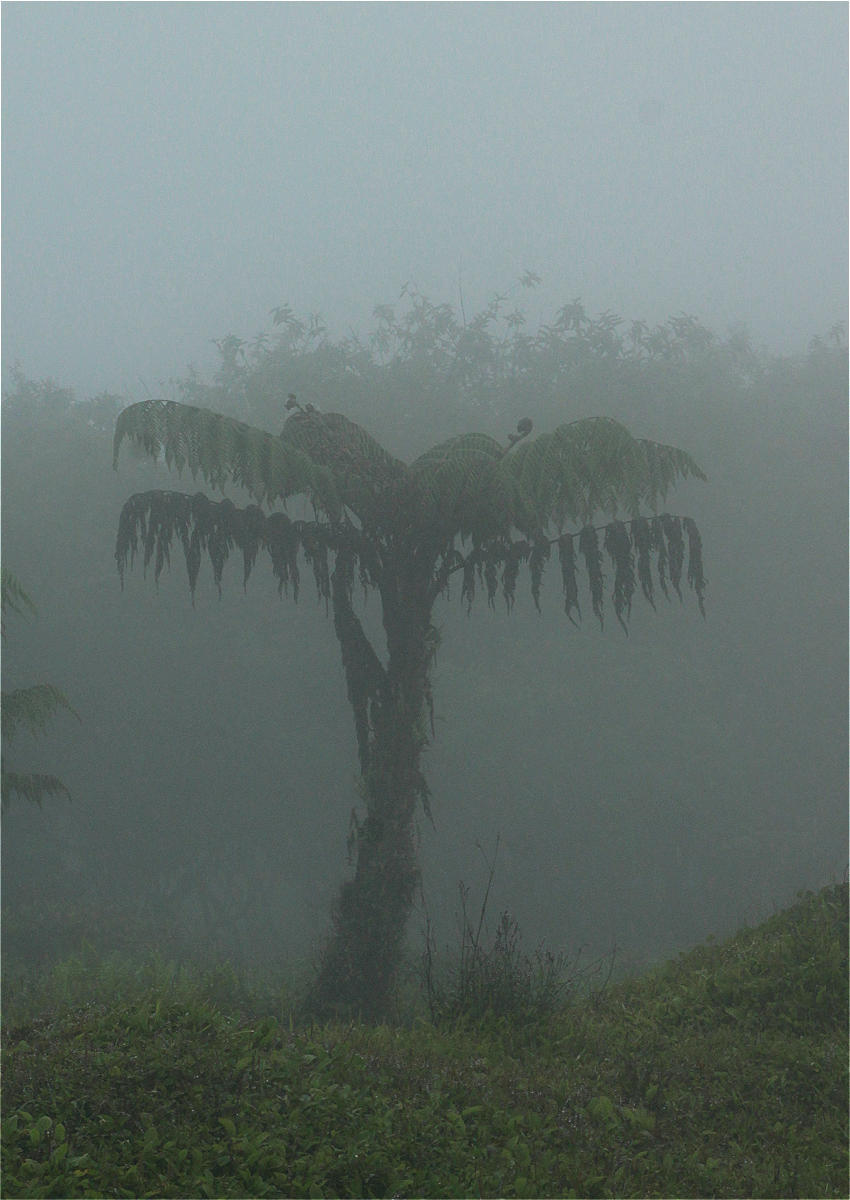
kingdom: Plantae
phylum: Tracheophyta
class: Polypodiopsida
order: Cyatheales
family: Cyatheaceae
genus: Cyathea
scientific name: Cyathea weatherbyana
